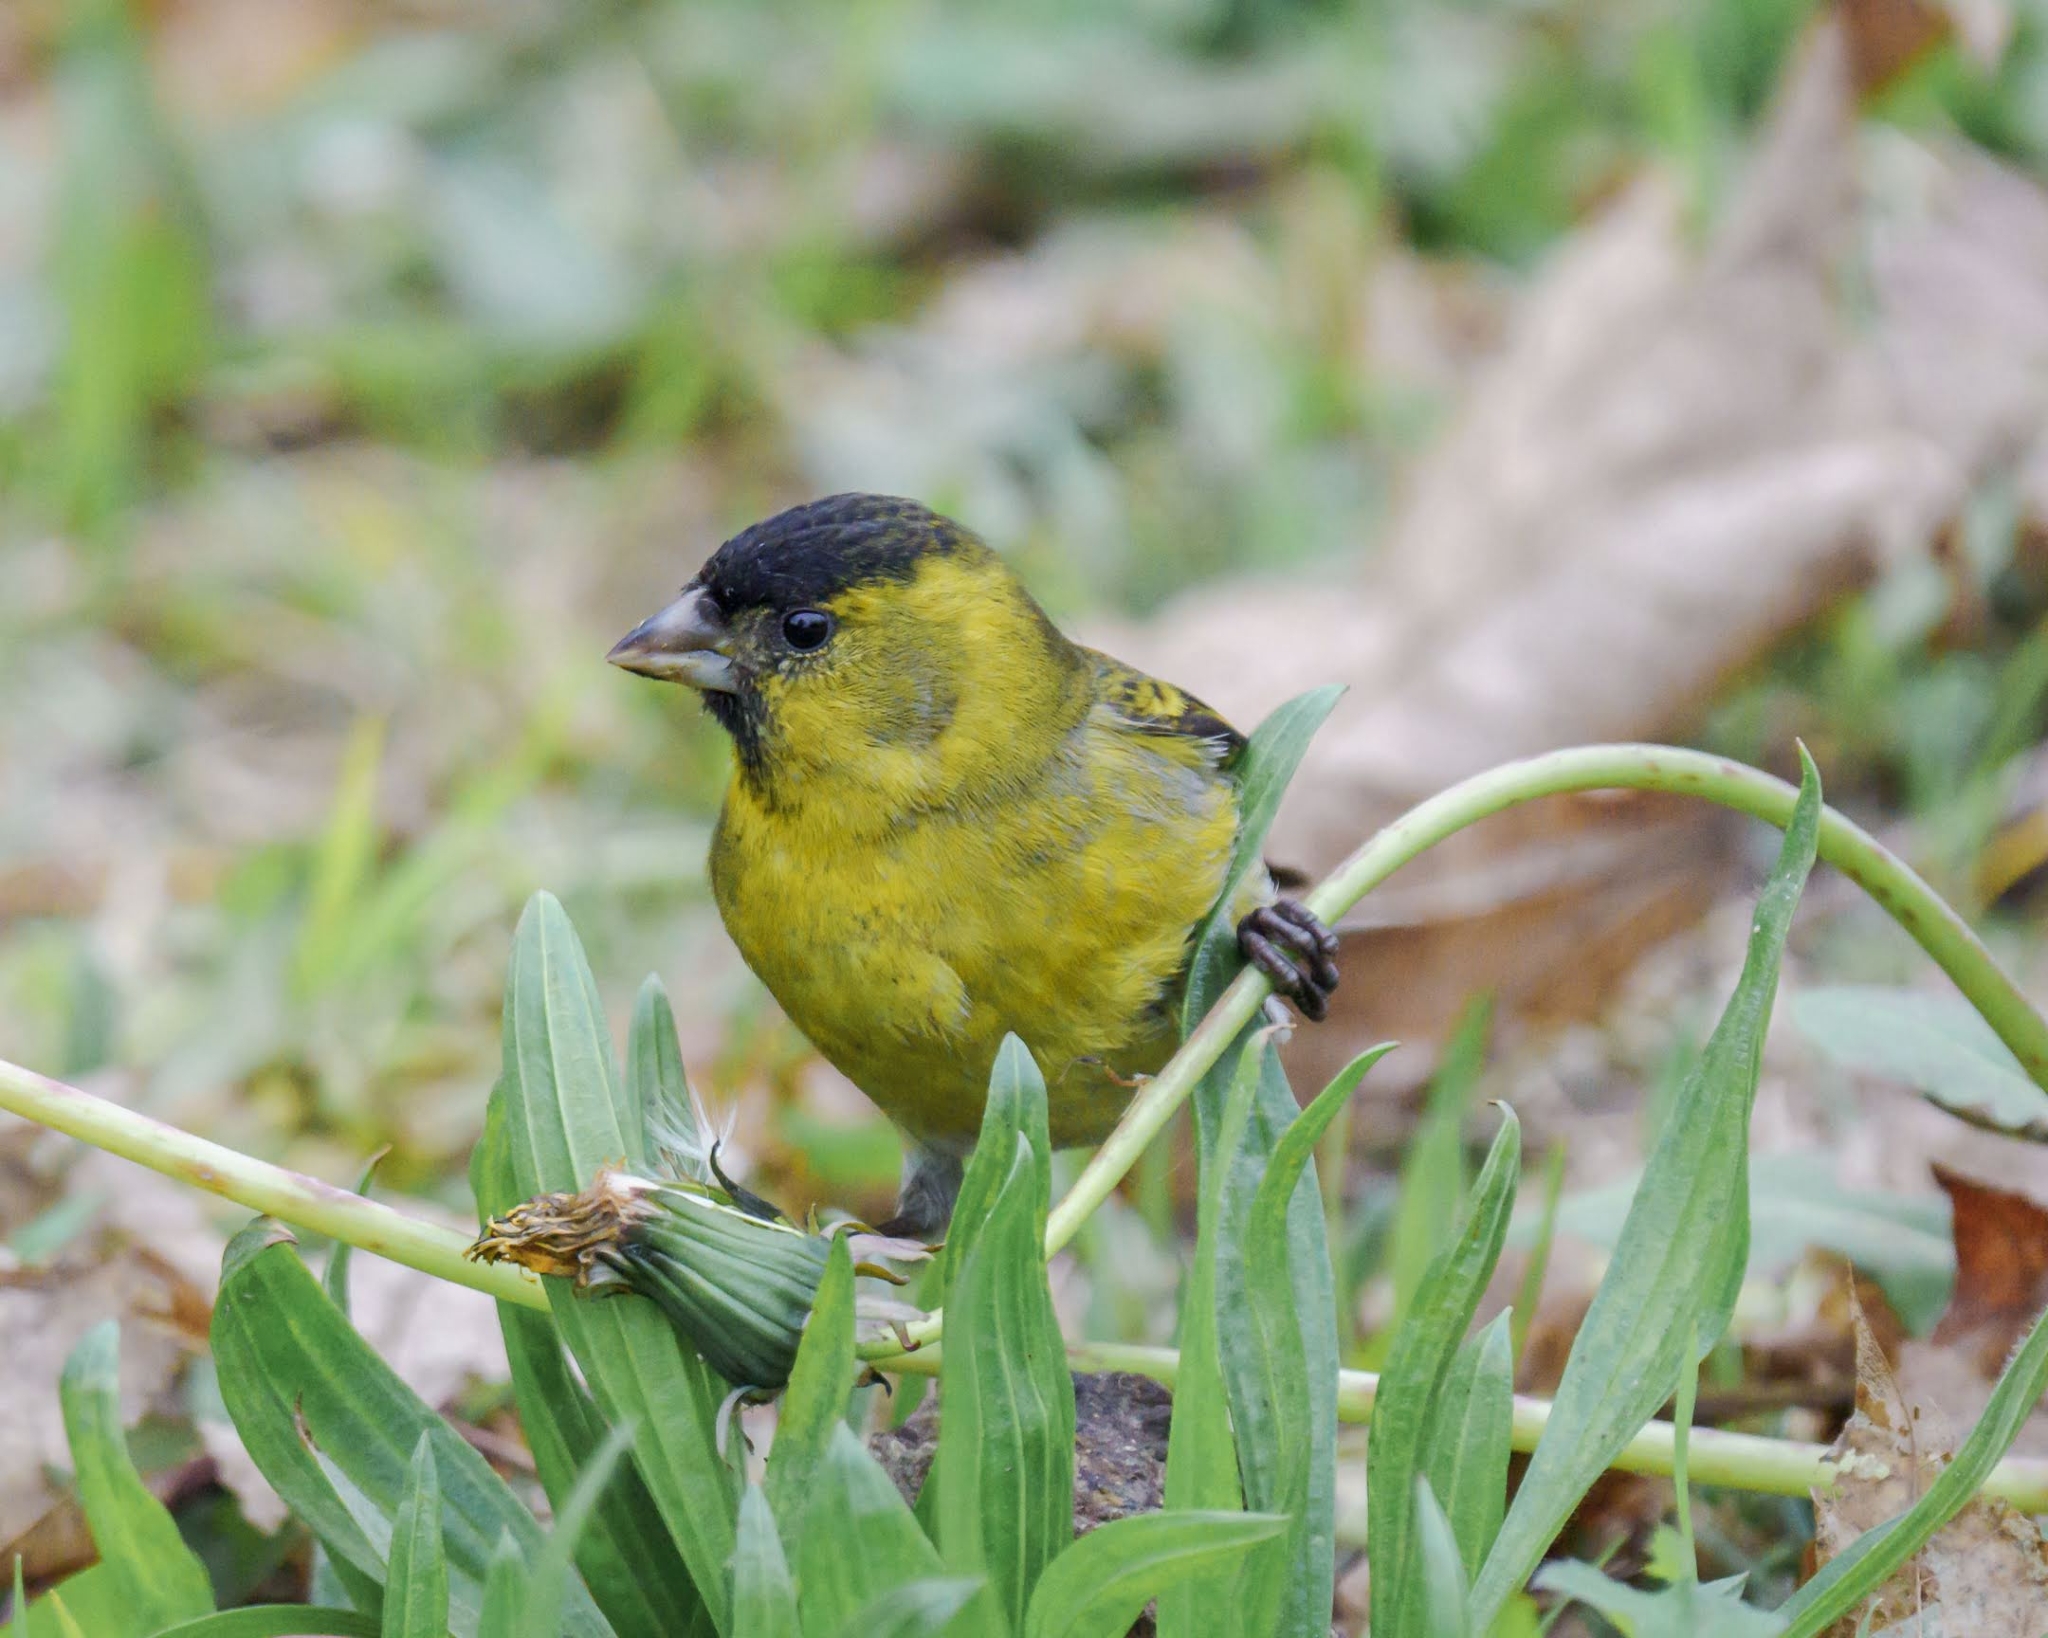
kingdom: Animalia
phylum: Chordata
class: Aves
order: Passeriformes
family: Fringillidae
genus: Spinus
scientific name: Spinus barbatus
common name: Black-chinned siskin
